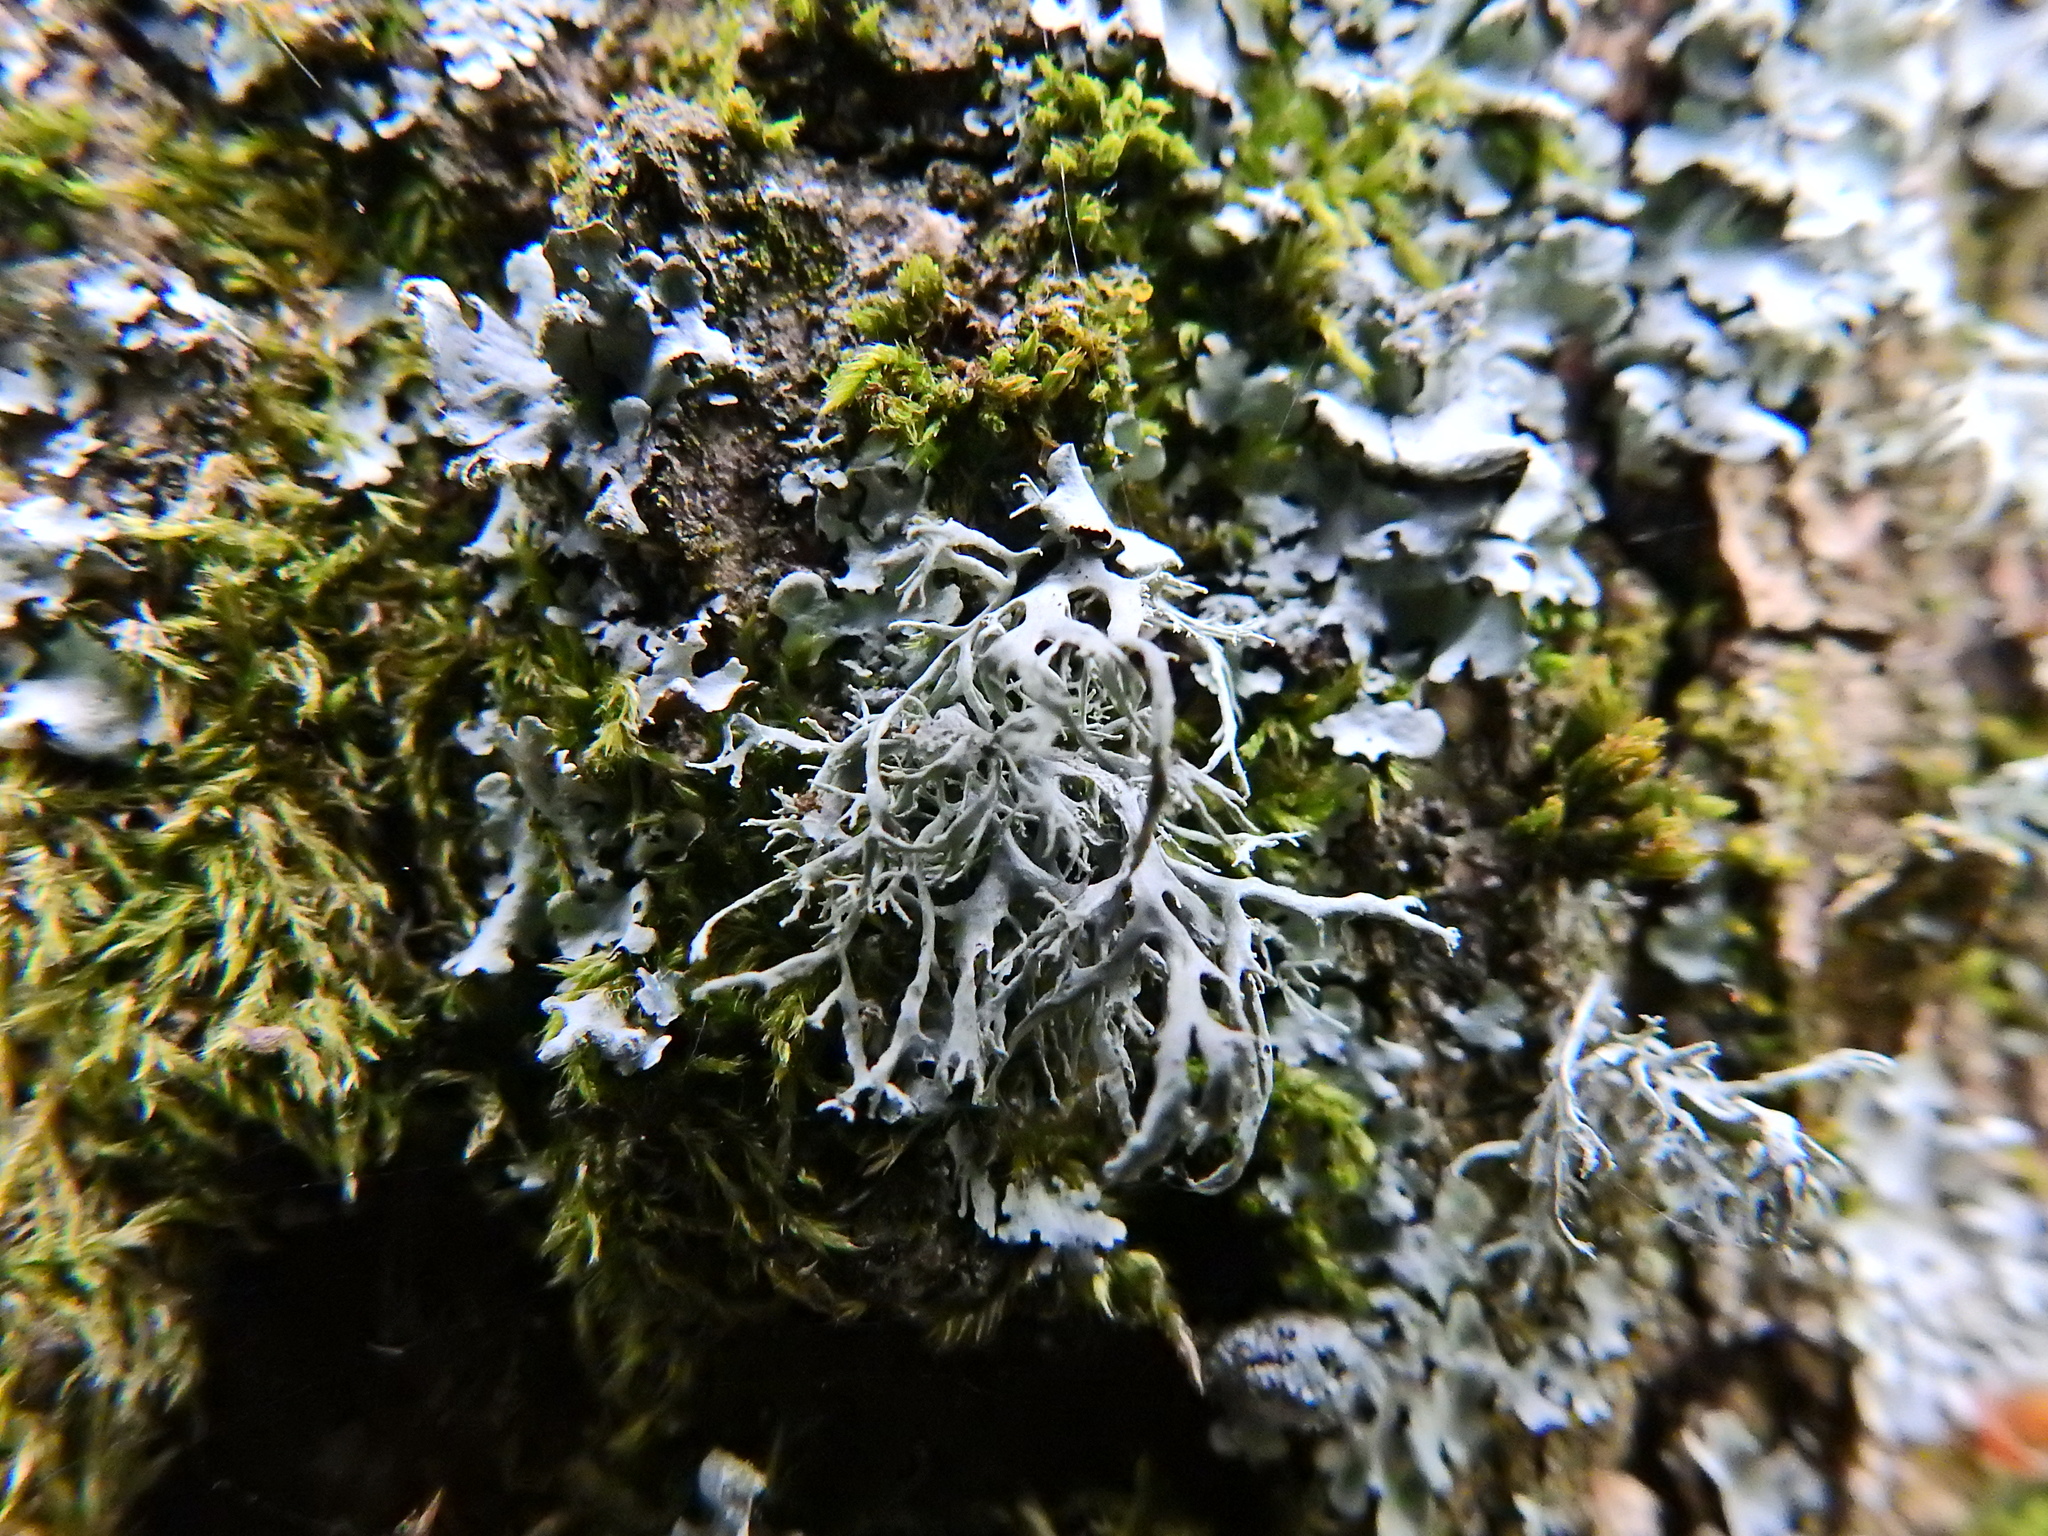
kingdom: Fungi
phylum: Ascomycota
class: Lecanoromycetes
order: Lecanorales
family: Ramalinaceae
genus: Ramalina
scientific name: Ramalina farinacea
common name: Farinose cartilage lichen
